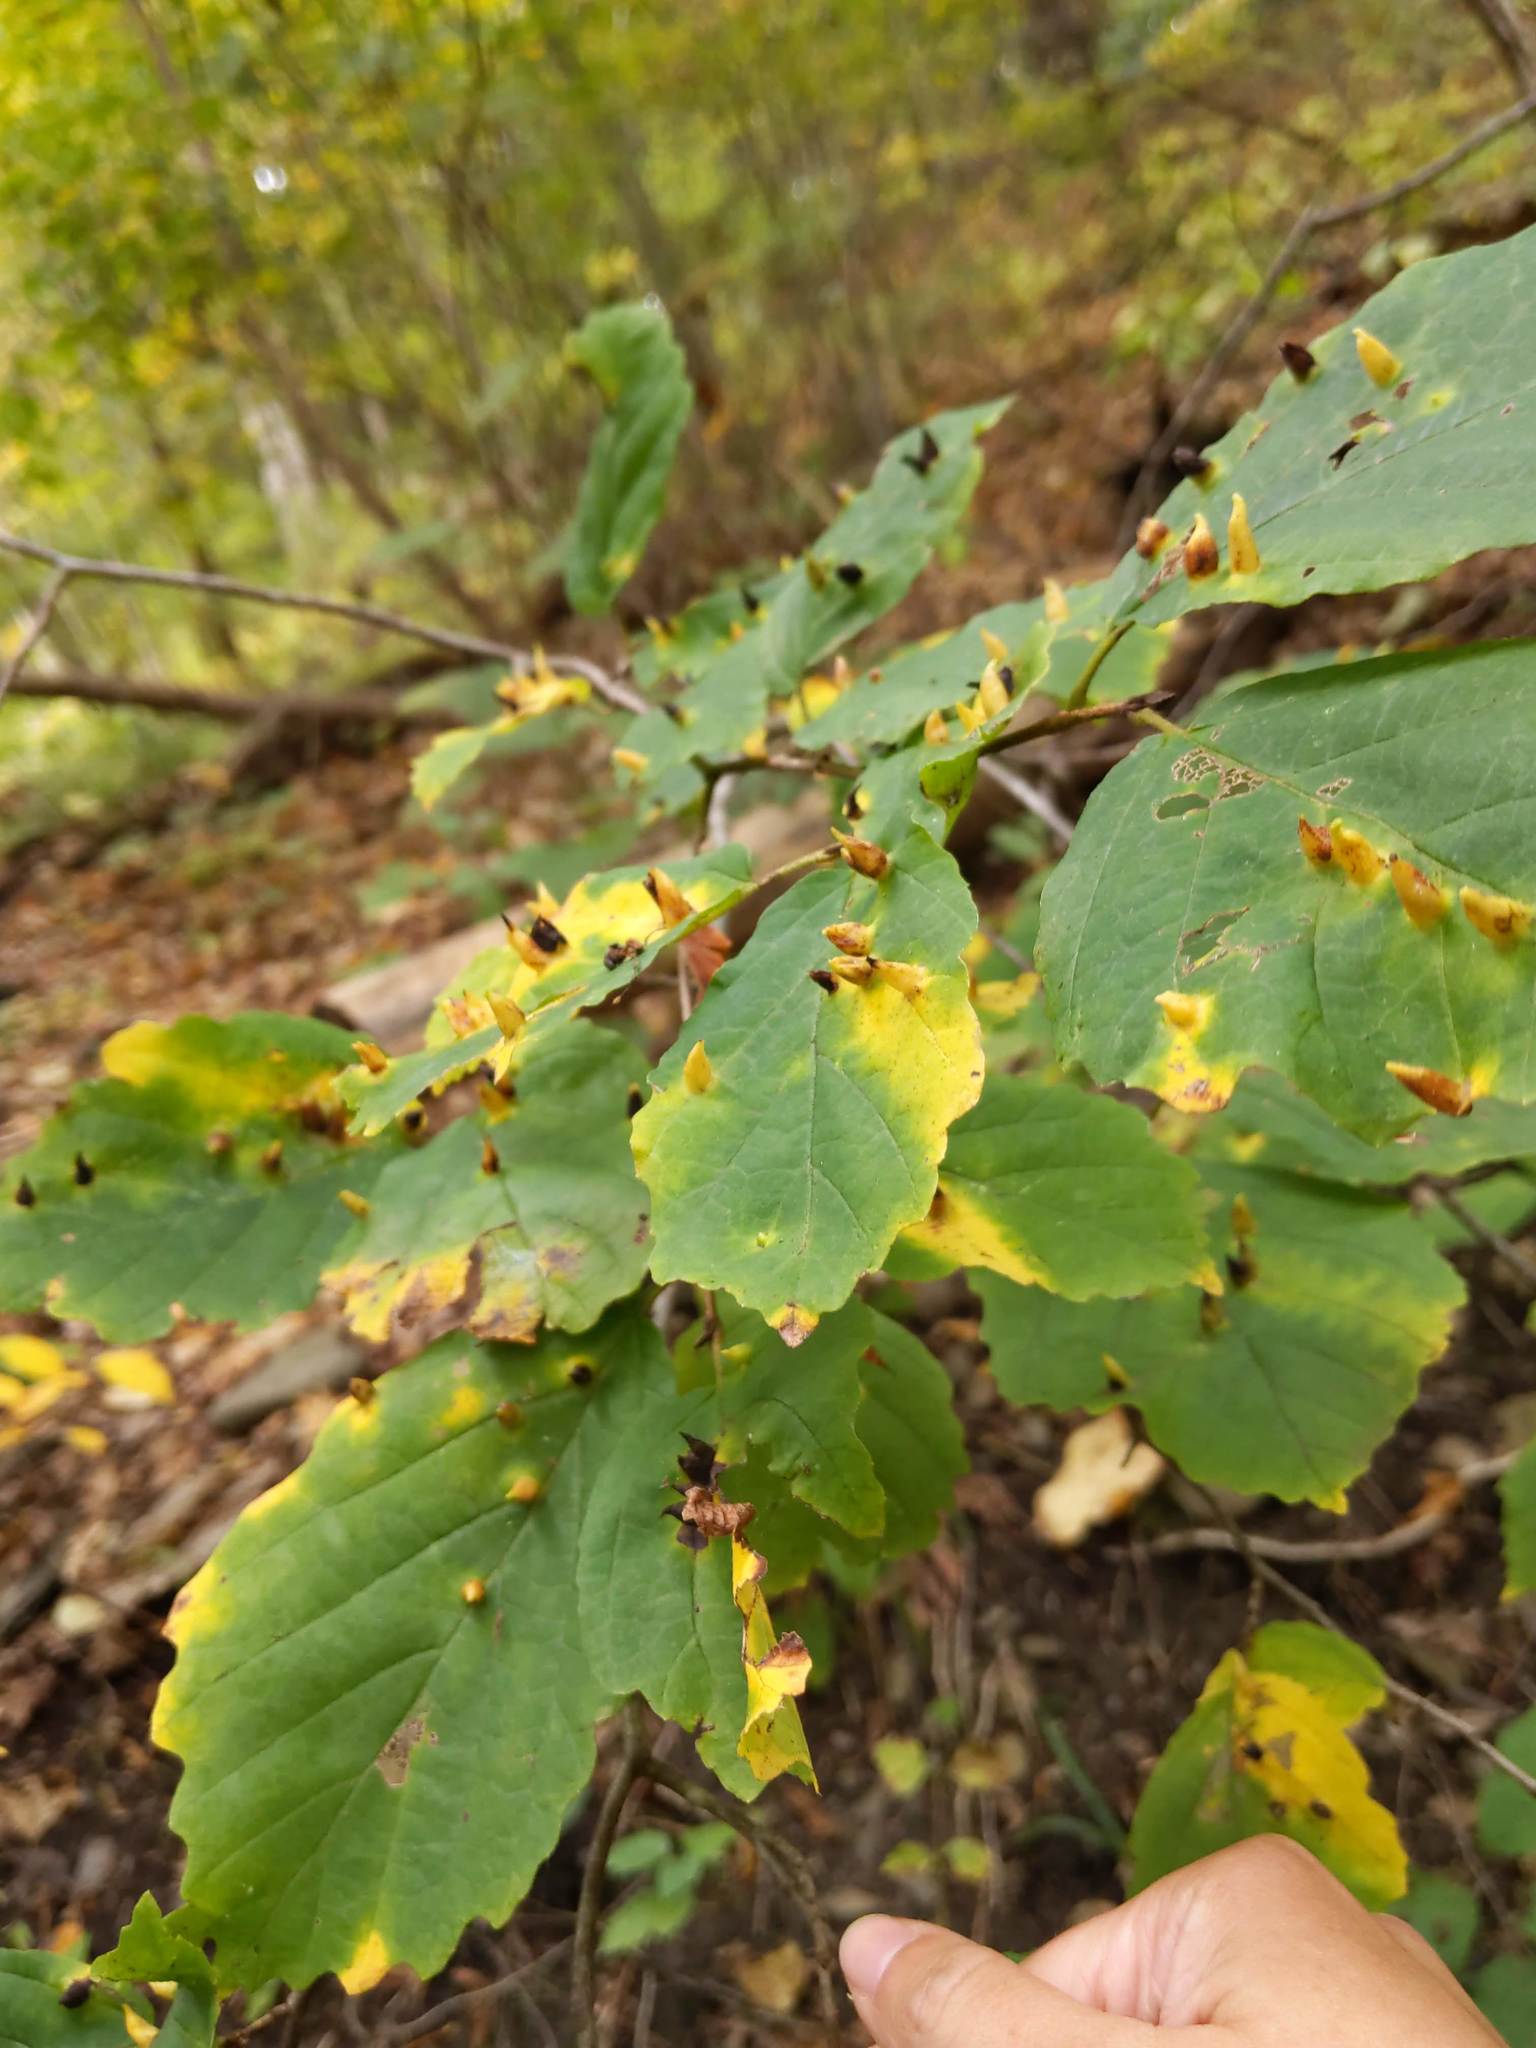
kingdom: Animalia
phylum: Arthropoda
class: Insecta
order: Hemiptera
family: Aphididae
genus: Hormaphis
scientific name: Hormaphis hamamelidis
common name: Witch-hazel cone gall aphid
